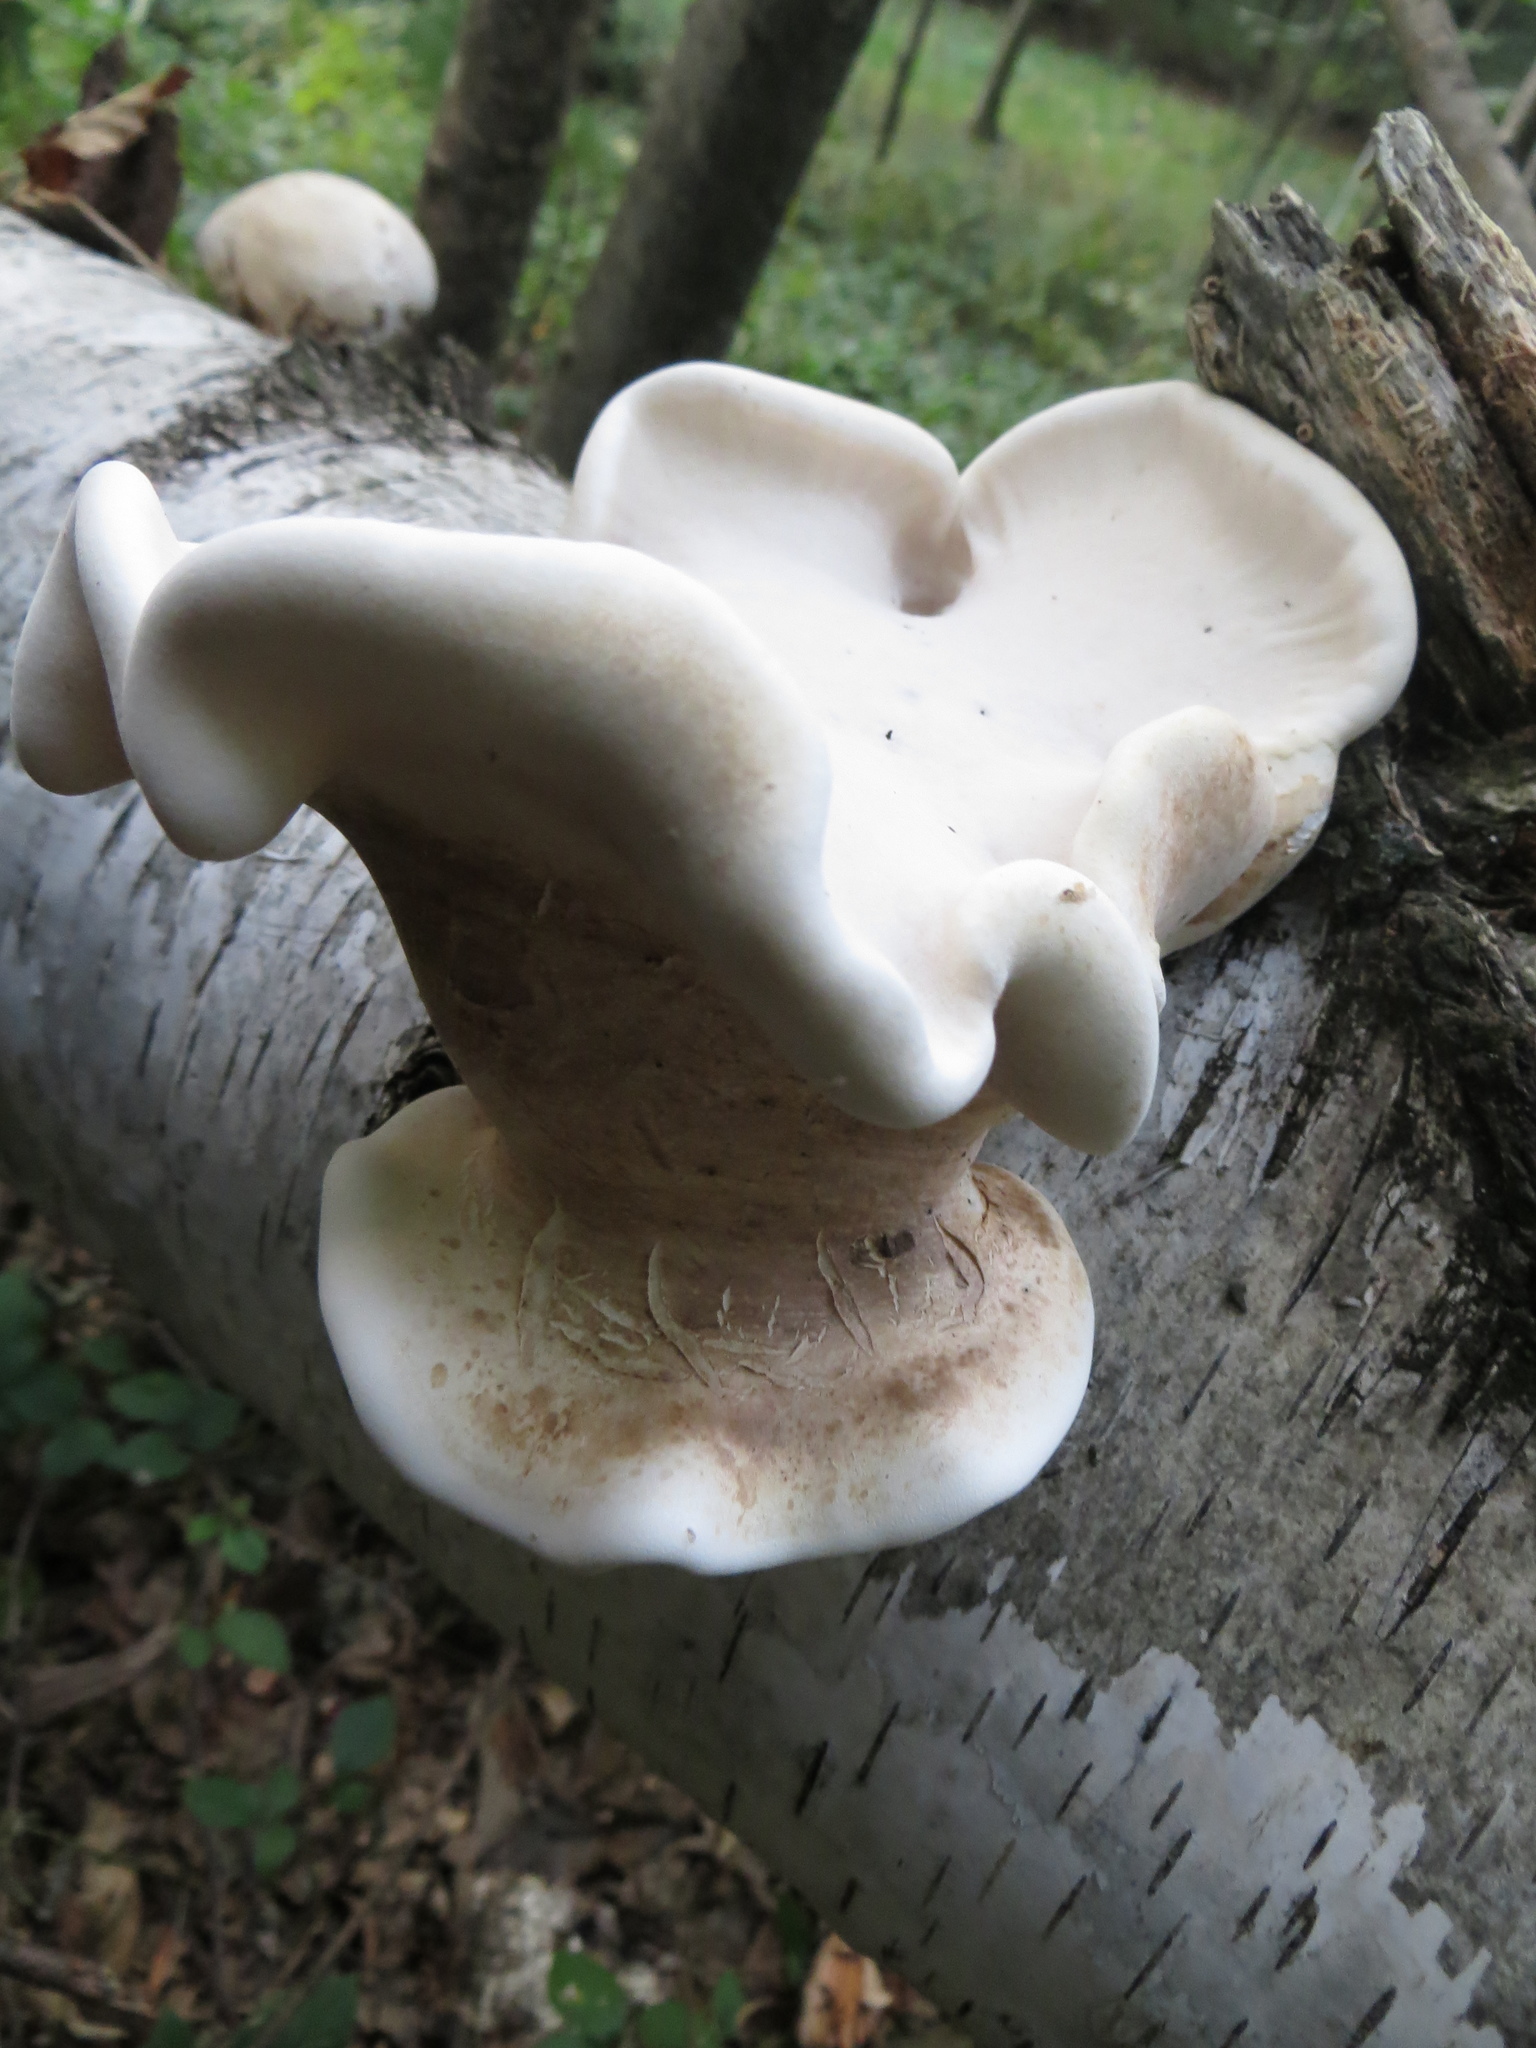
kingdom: Fungi
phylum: Basidiomycota
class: Agaricomycetes
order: Polyporales
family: Fomitopsidaceae
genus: Fomitopsis
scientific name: Fomitopsis betulina
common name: Birch polypore
